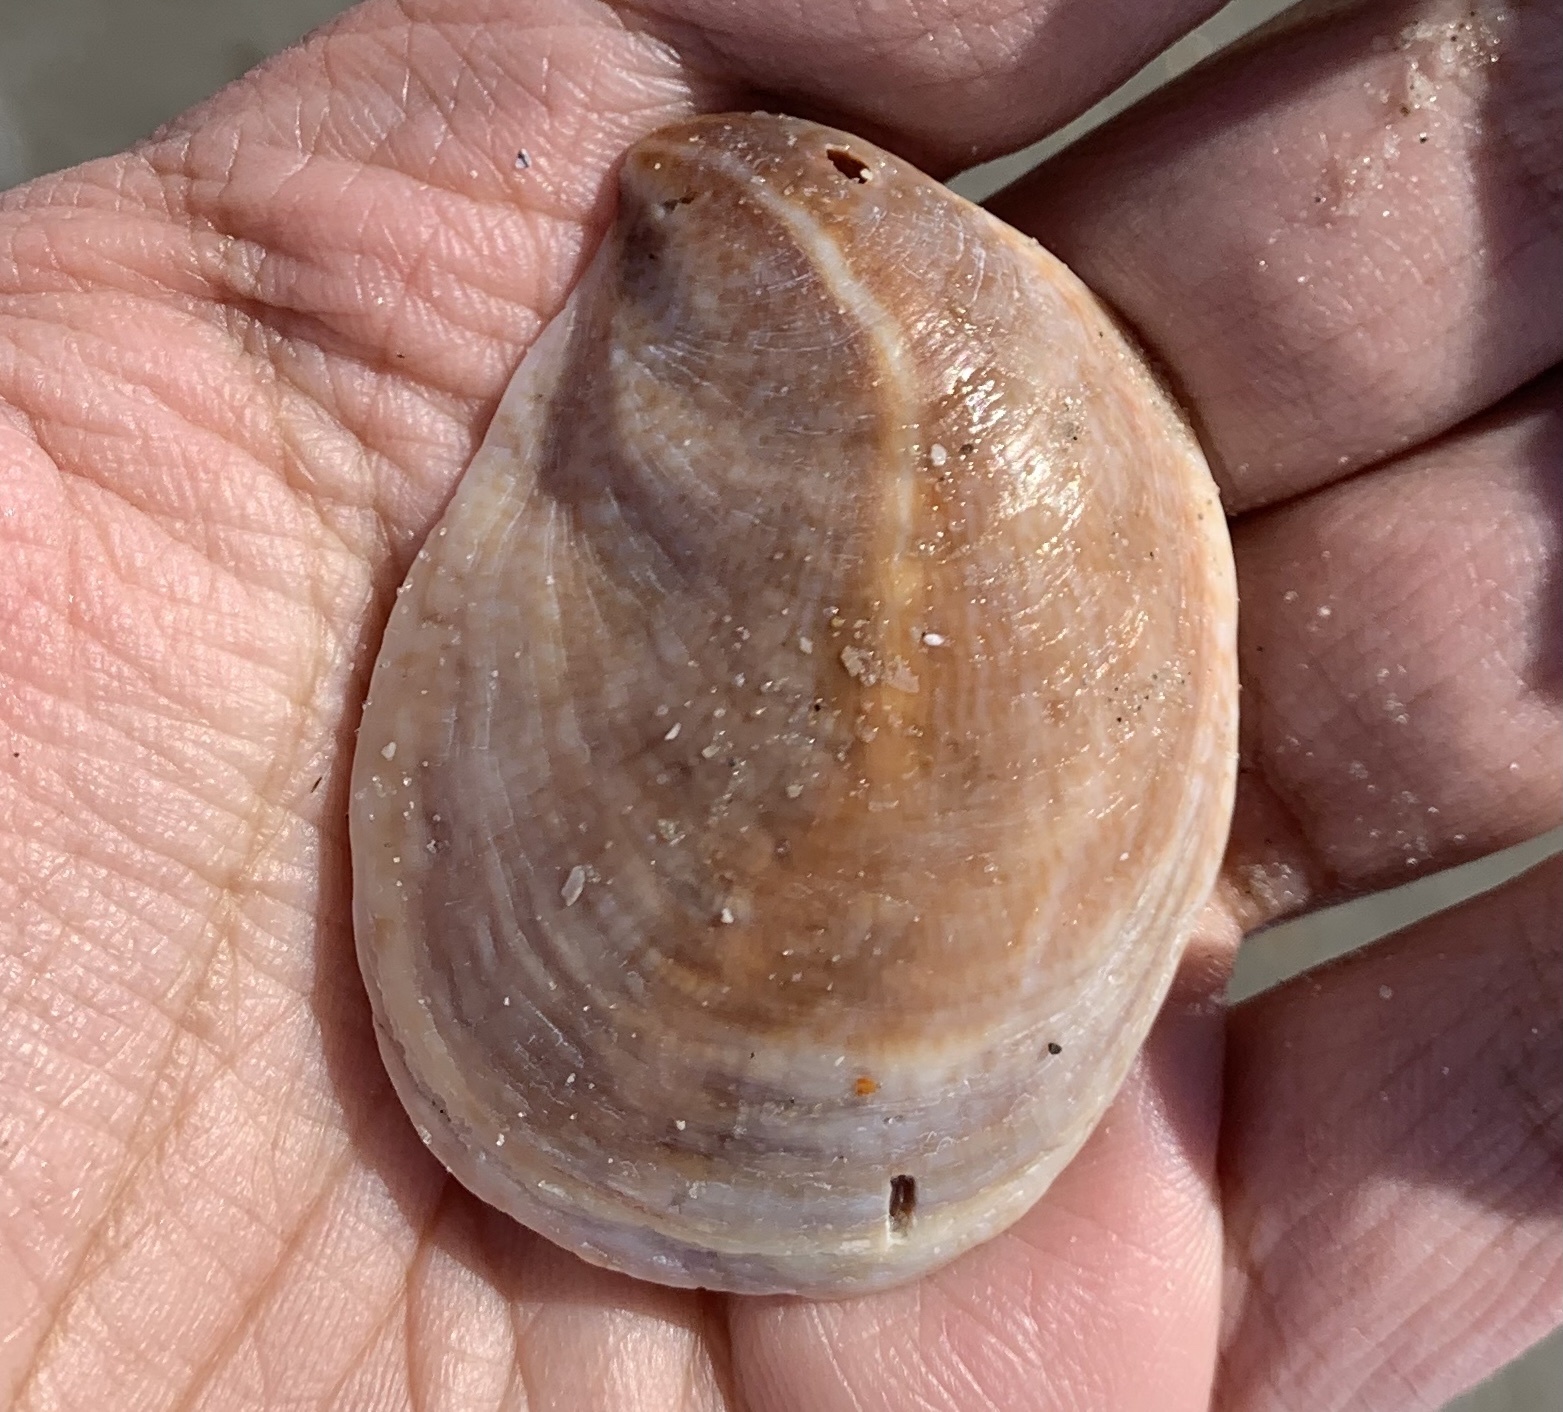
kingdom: Animalia
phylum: Mollusca
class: Gastropoda
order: Littorinimorpha
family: Calyptraeidae
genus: Crepidula
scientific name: Crepidula fornicata
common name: Slipper limpet
